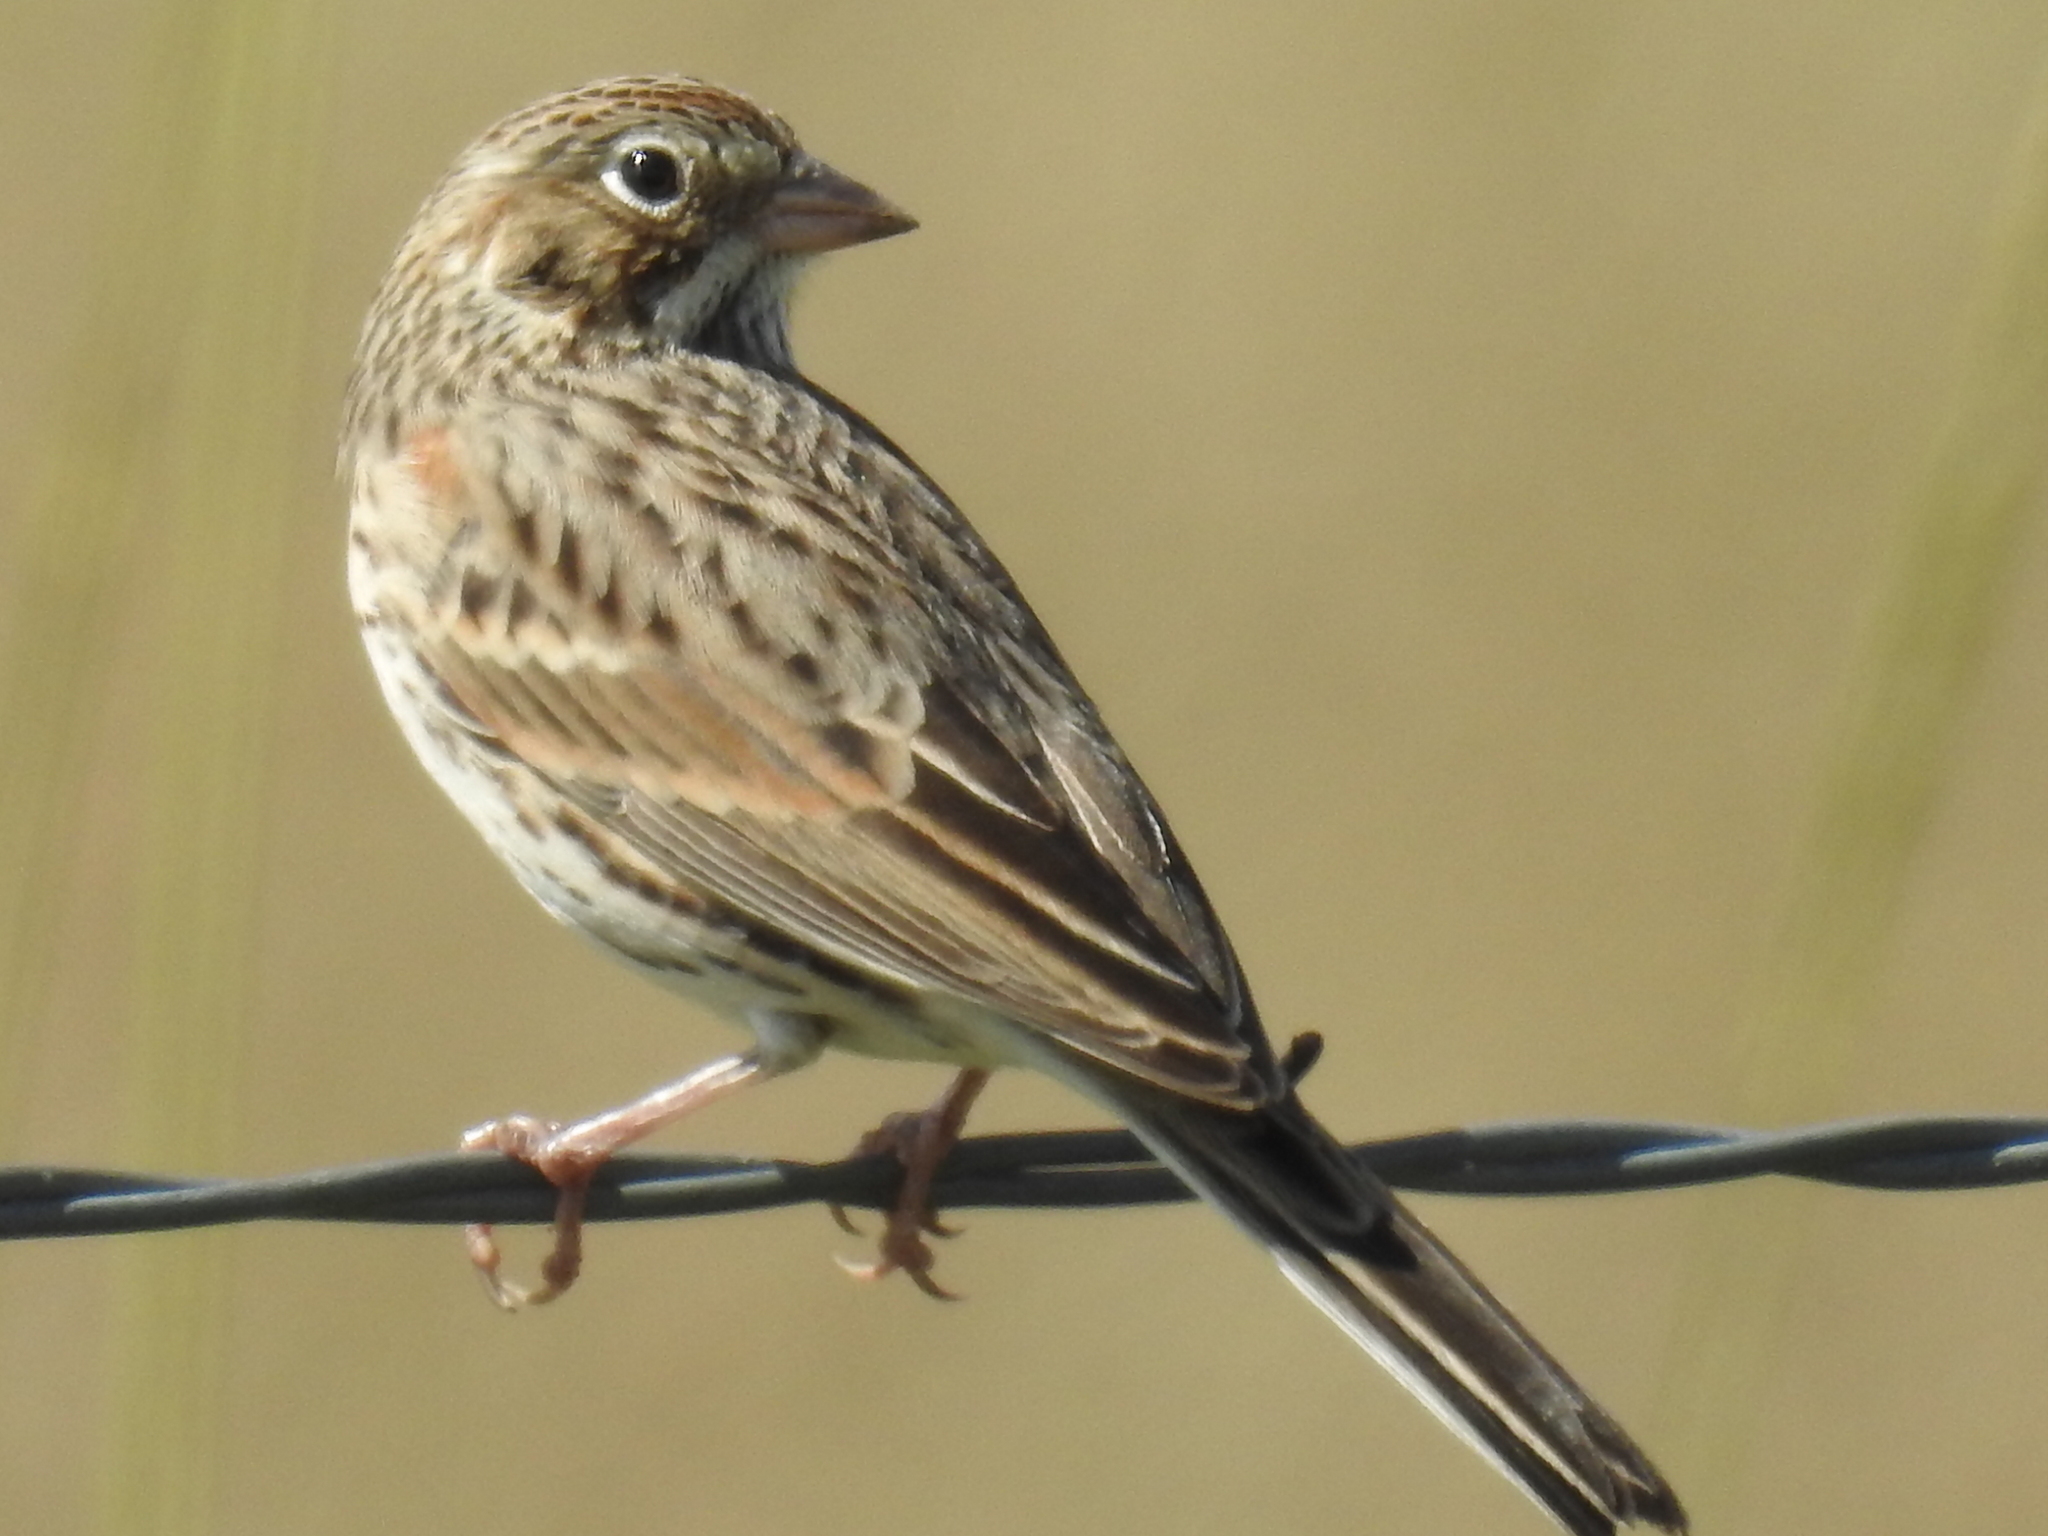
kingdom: Animalia
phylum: Chordata
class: Aves
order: Passeriformes
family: Passerellidae
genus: Pooecetes
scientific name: Pooecetes gramineus
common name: Vesper sparrow
